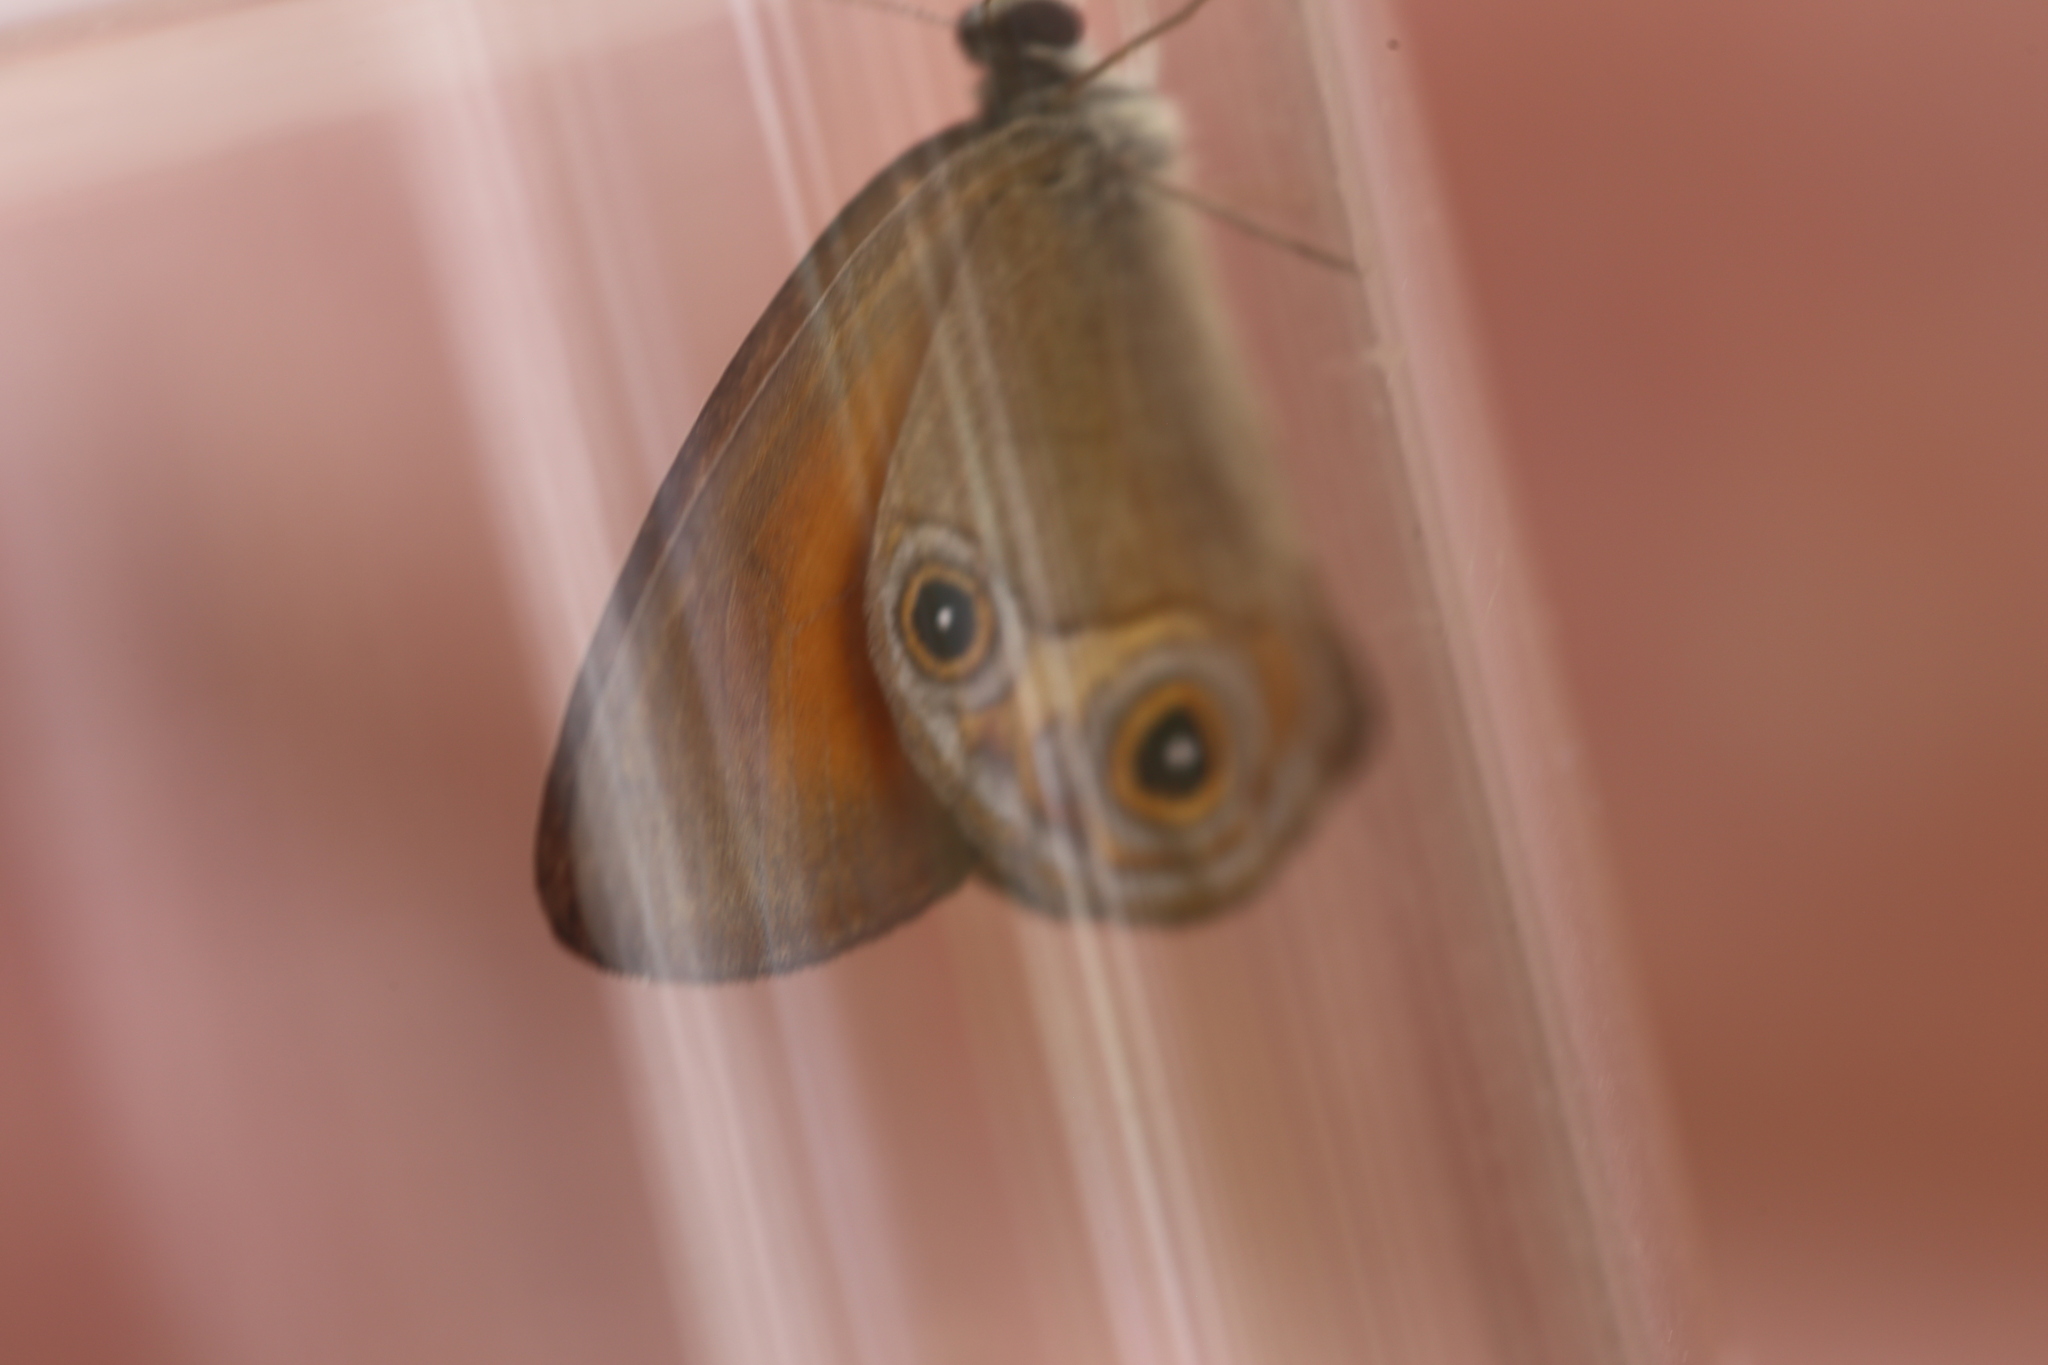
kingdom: Animalia
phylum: Arthropoda
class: Insecta
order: Lepidoptera
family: Nymphalidae
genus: Hypocysta
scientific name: Hypocysta adiante
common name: Orange ringlet
